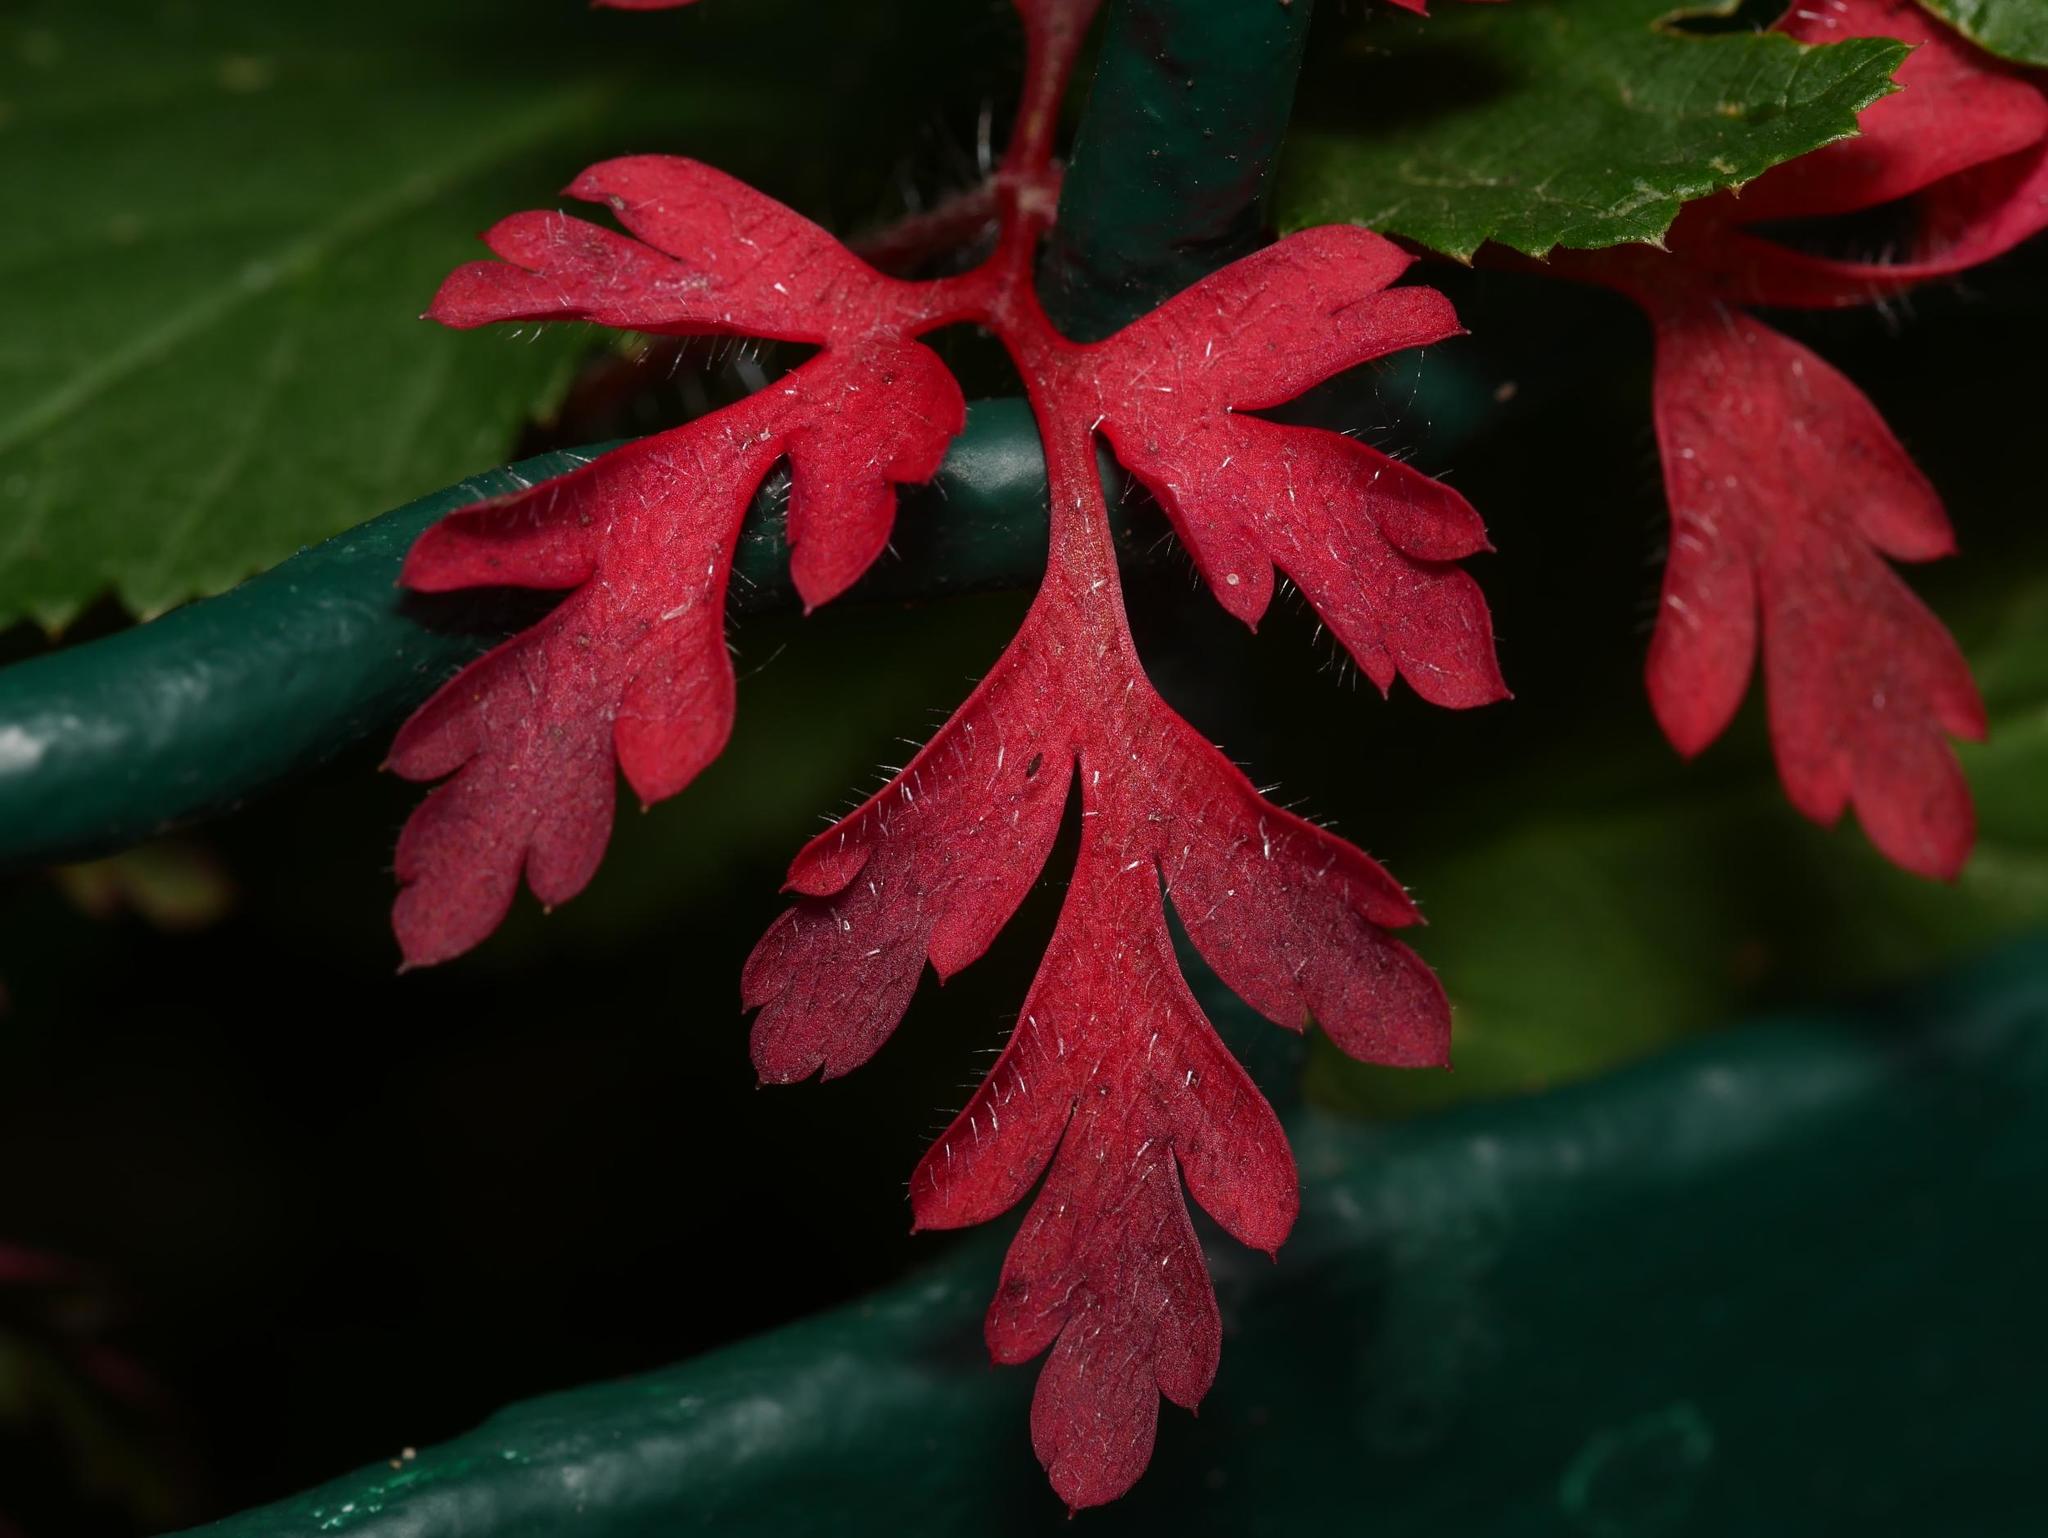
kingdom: Plantae
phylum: Tracheophyta
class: Magnoliopsida
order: Geraniales
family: Geraniaceae
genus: Geranium
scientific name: Geranium robertianum
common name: Herb-robert
